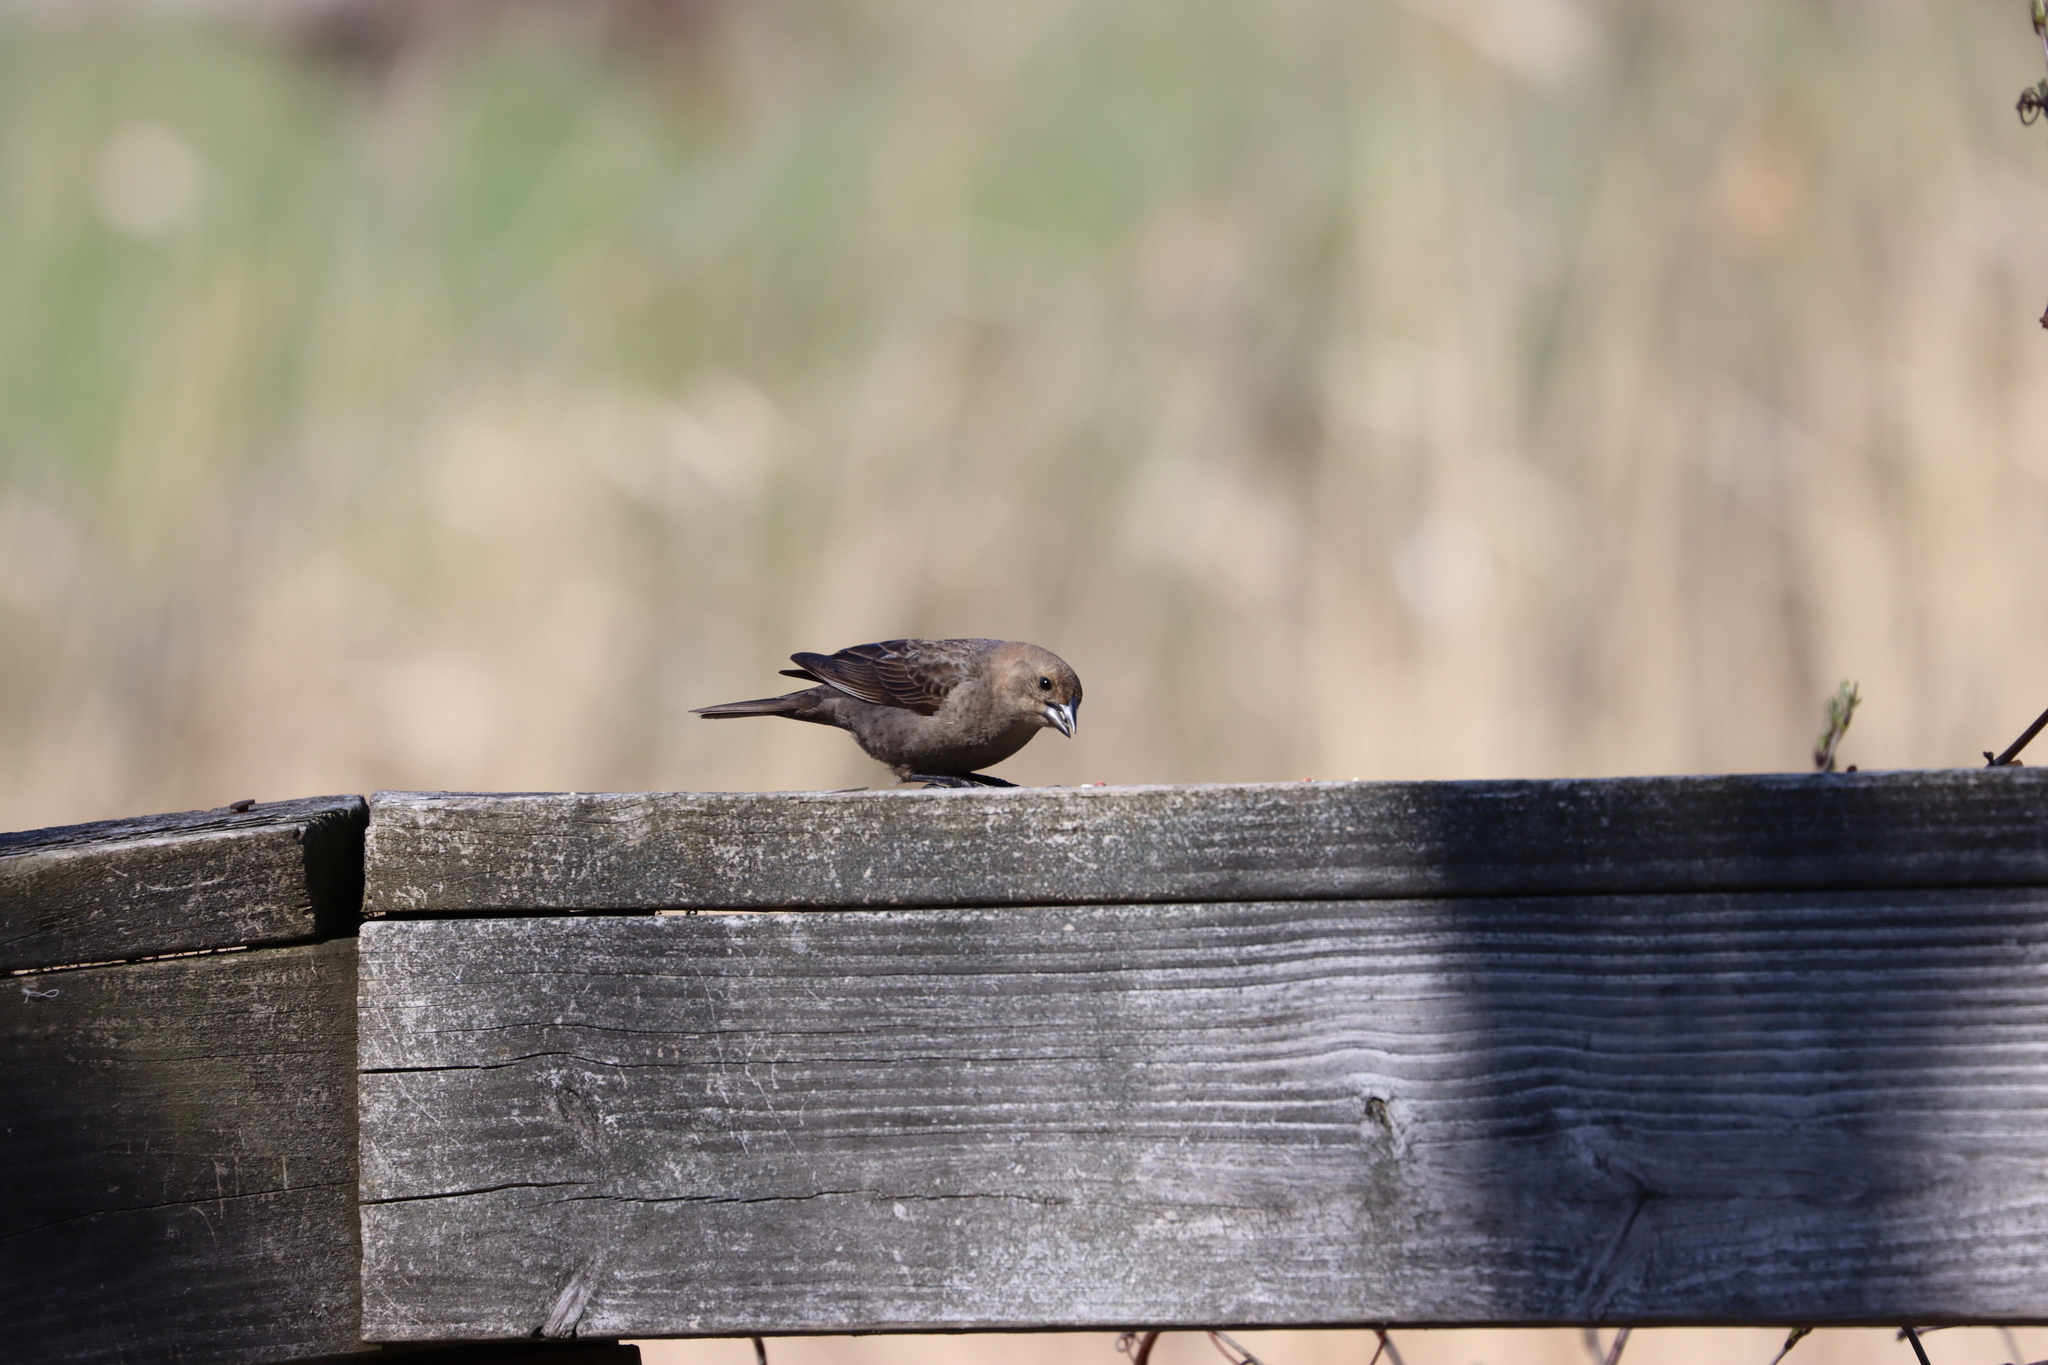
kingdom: Animalia
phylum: Chordata
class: Aves
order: Passeriformes
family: Icteridae
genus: Molothrus
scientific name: Molothrus ater
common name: Brown-headed cowbird
